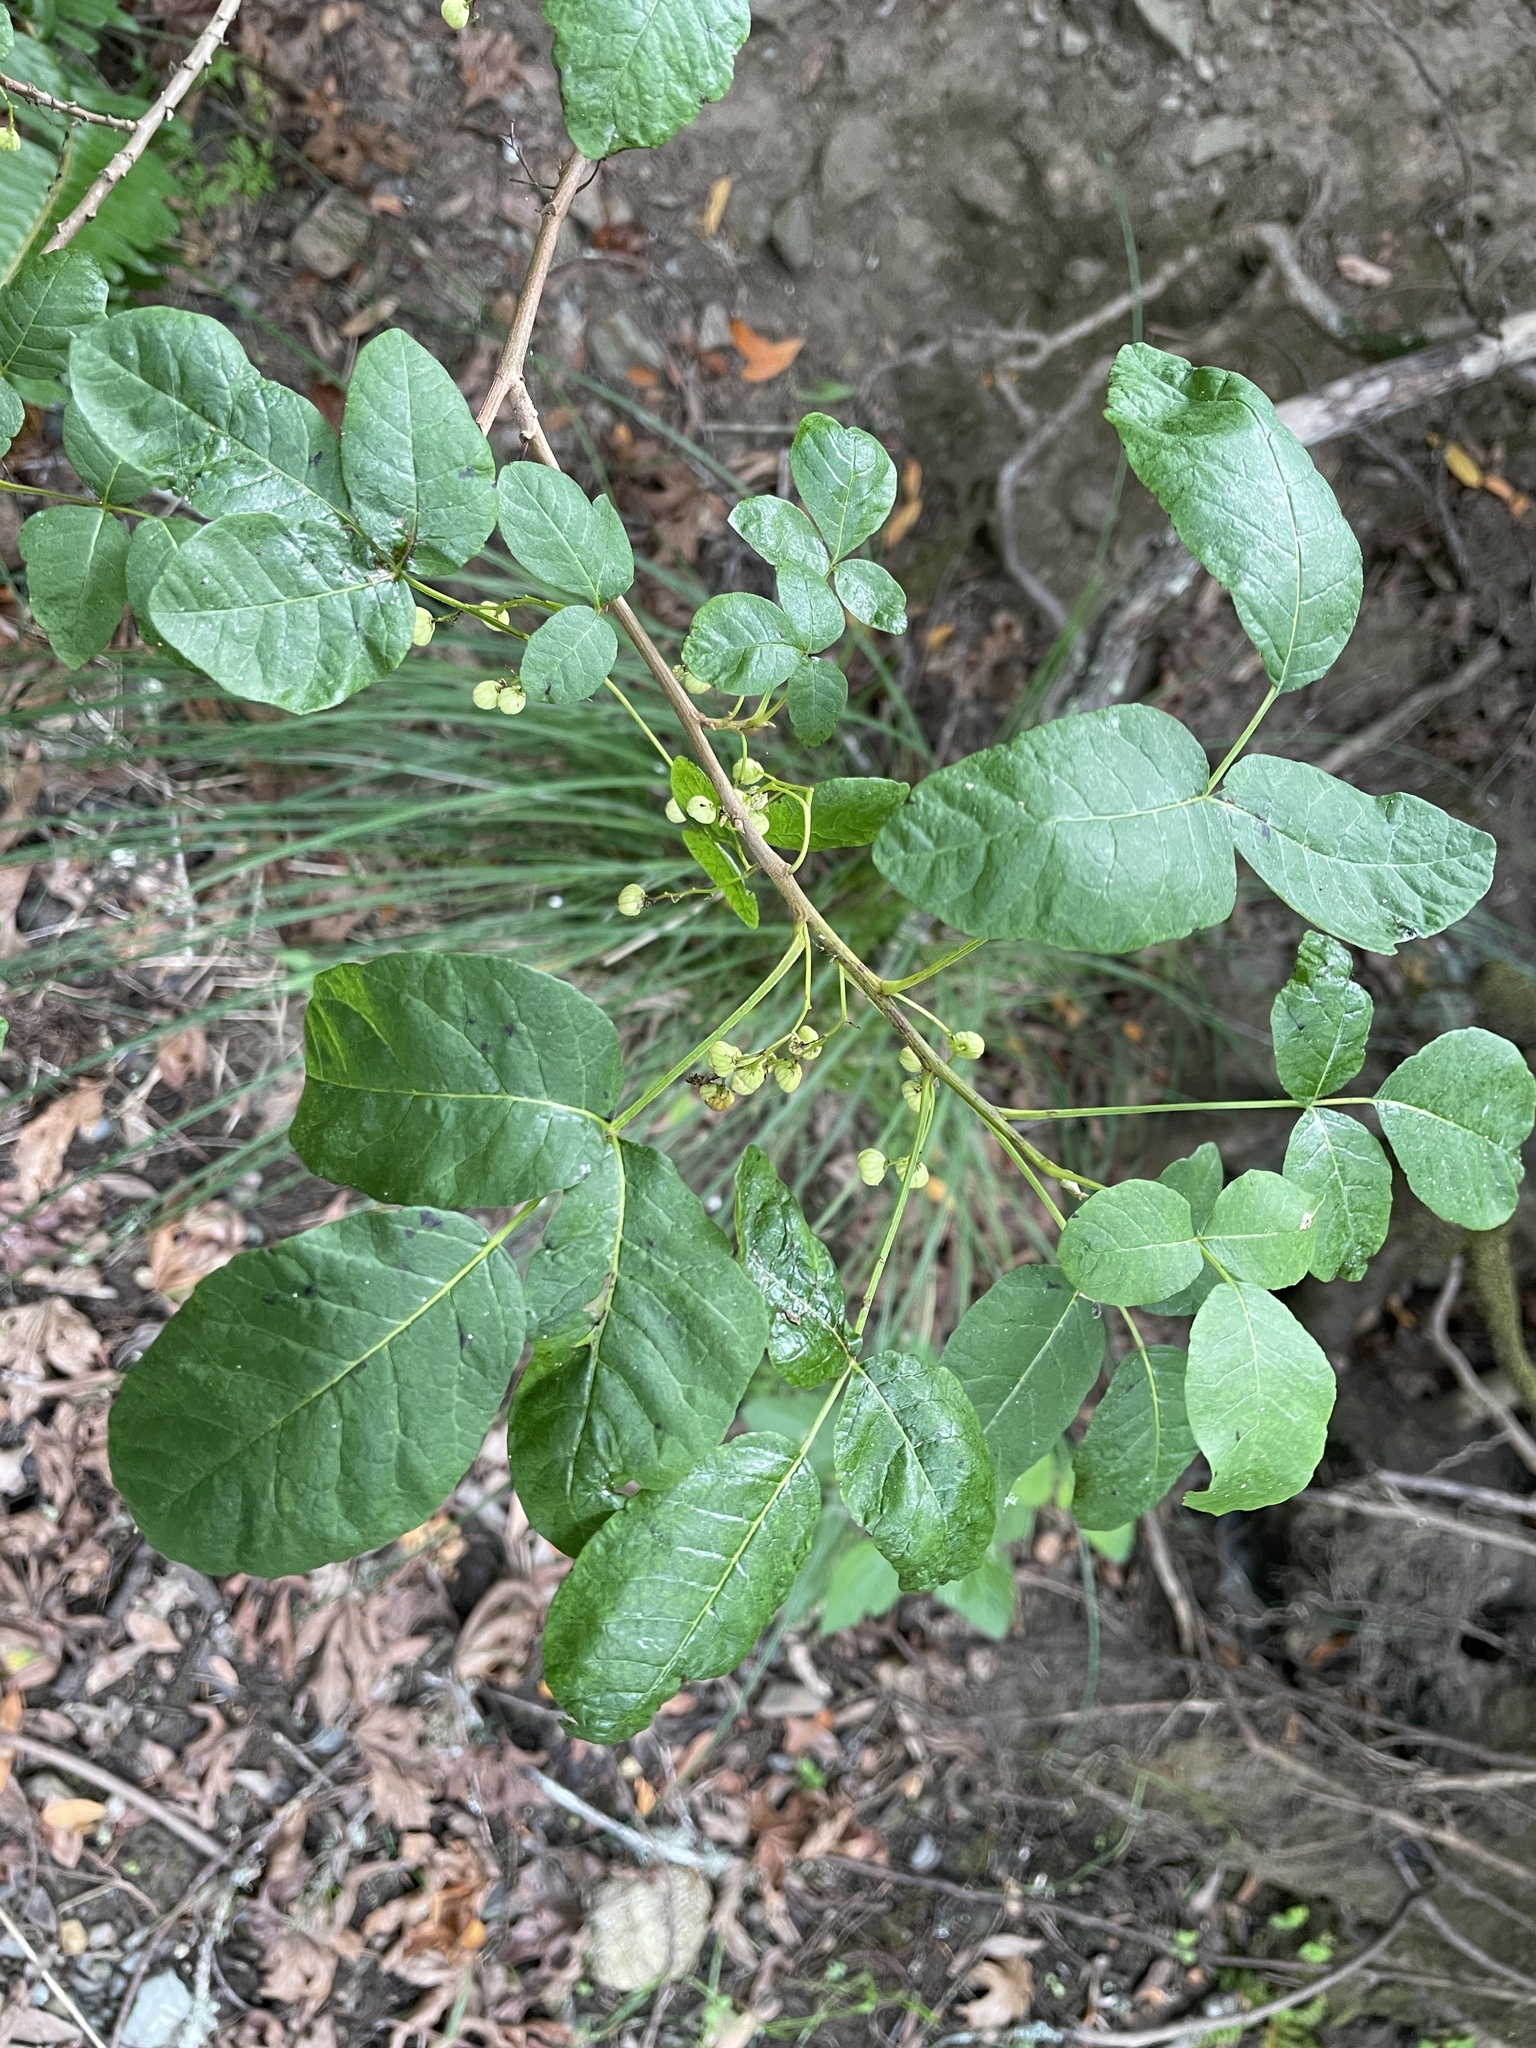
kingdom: Plantae
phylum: Tracheophyta
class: Magnoliopsida
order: Sapindales
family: Anacardiaceae
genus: Toxicodendron
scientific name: Toxicodendron diversilobum
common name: Pacific poison-oak
